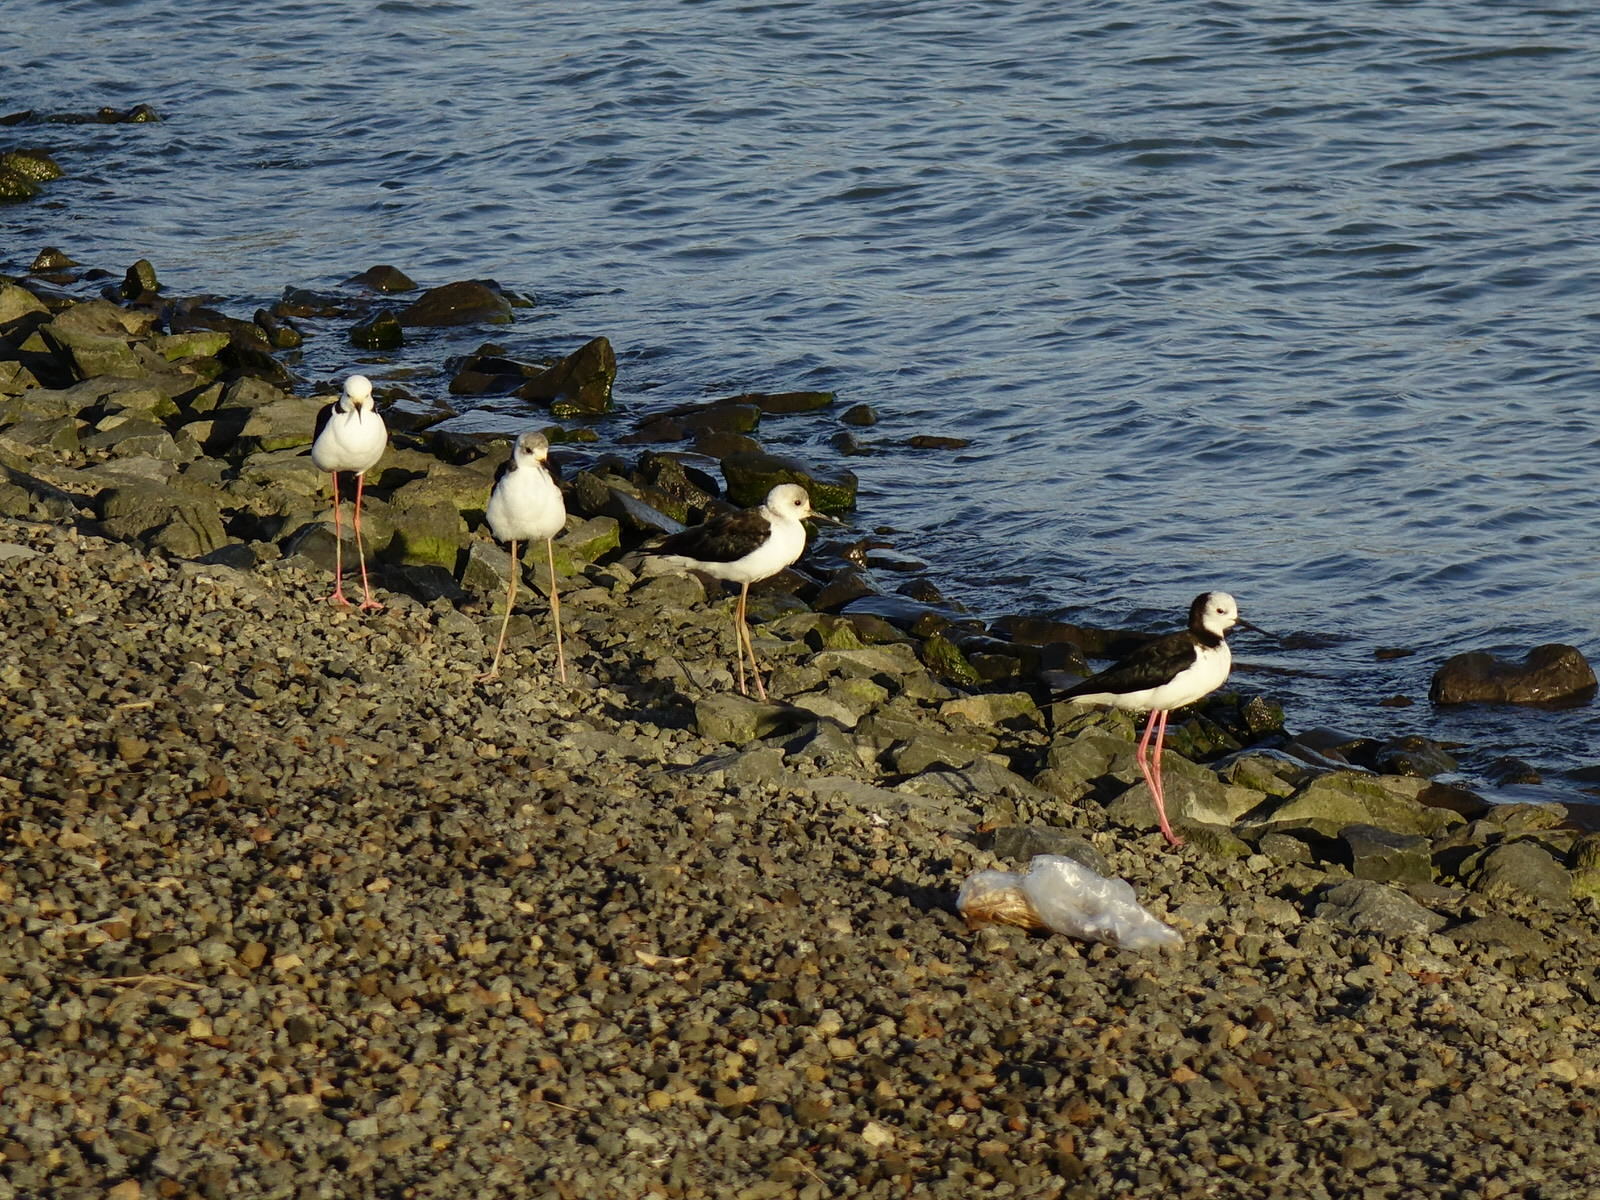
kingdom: Animalia
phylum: Chordata
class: Aves
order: Charadriiformes
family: Recurvirostridae
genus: Himantopus
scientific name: Himantopus leucocephalus
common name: White-headed stilt
